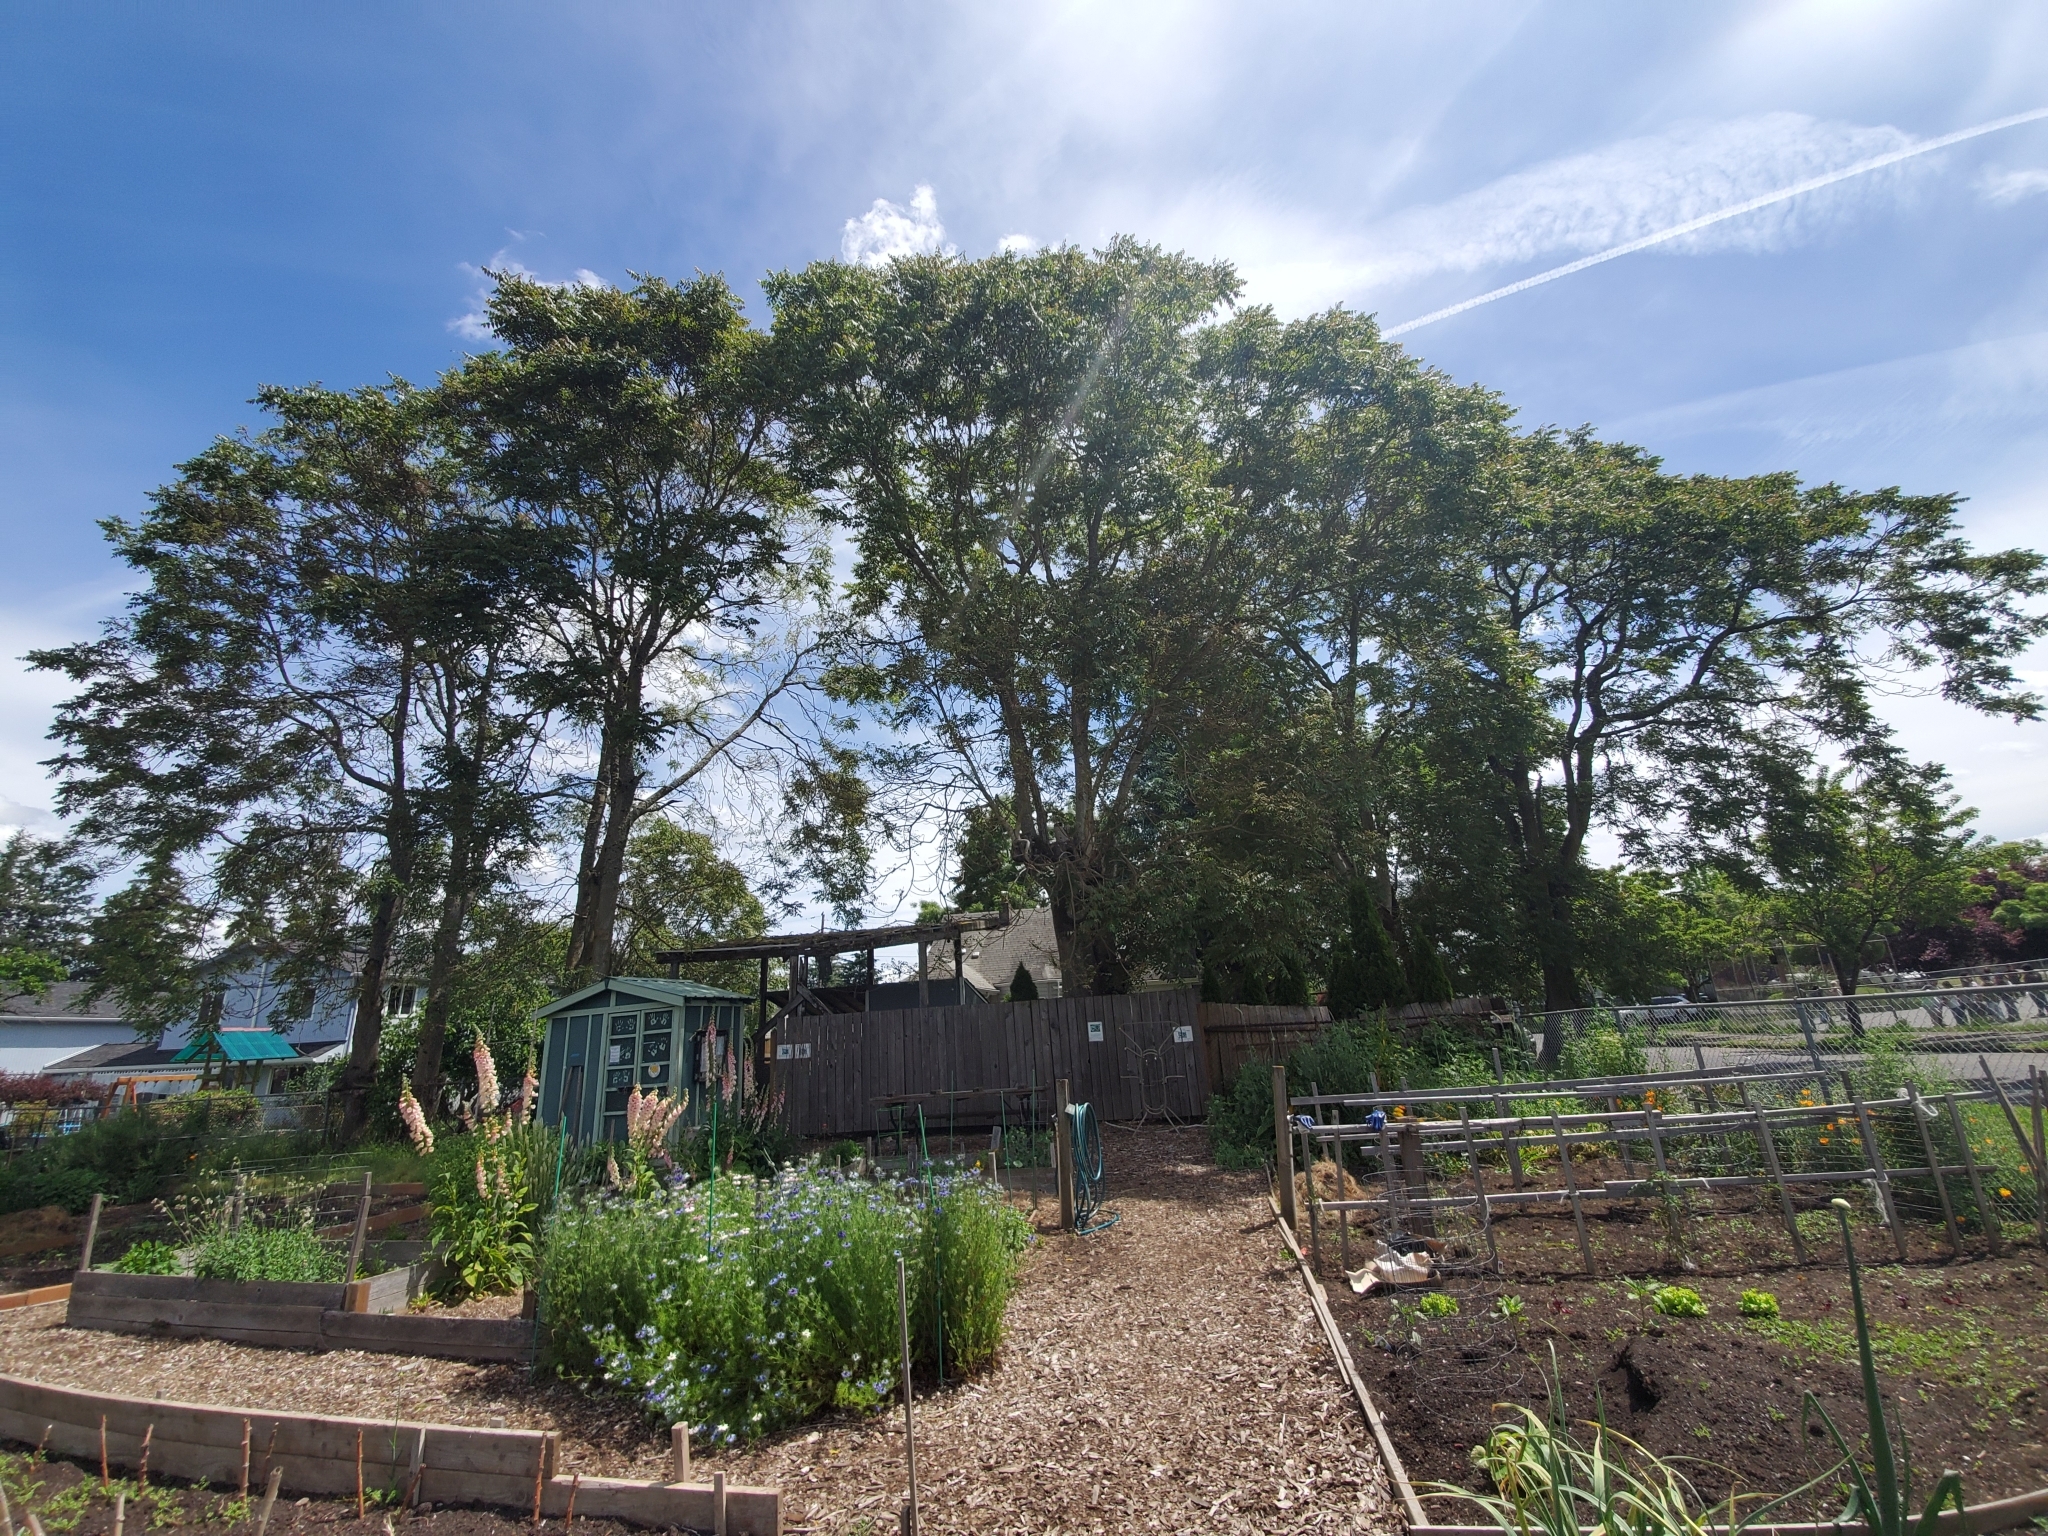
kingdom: Plantae
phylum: Tracheophyta
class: Magnoliopsida
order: Sapindales
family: Simaroubaceae
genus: Ailanthus
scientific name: Ailanthus altissima
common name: Tree-of-heaven
